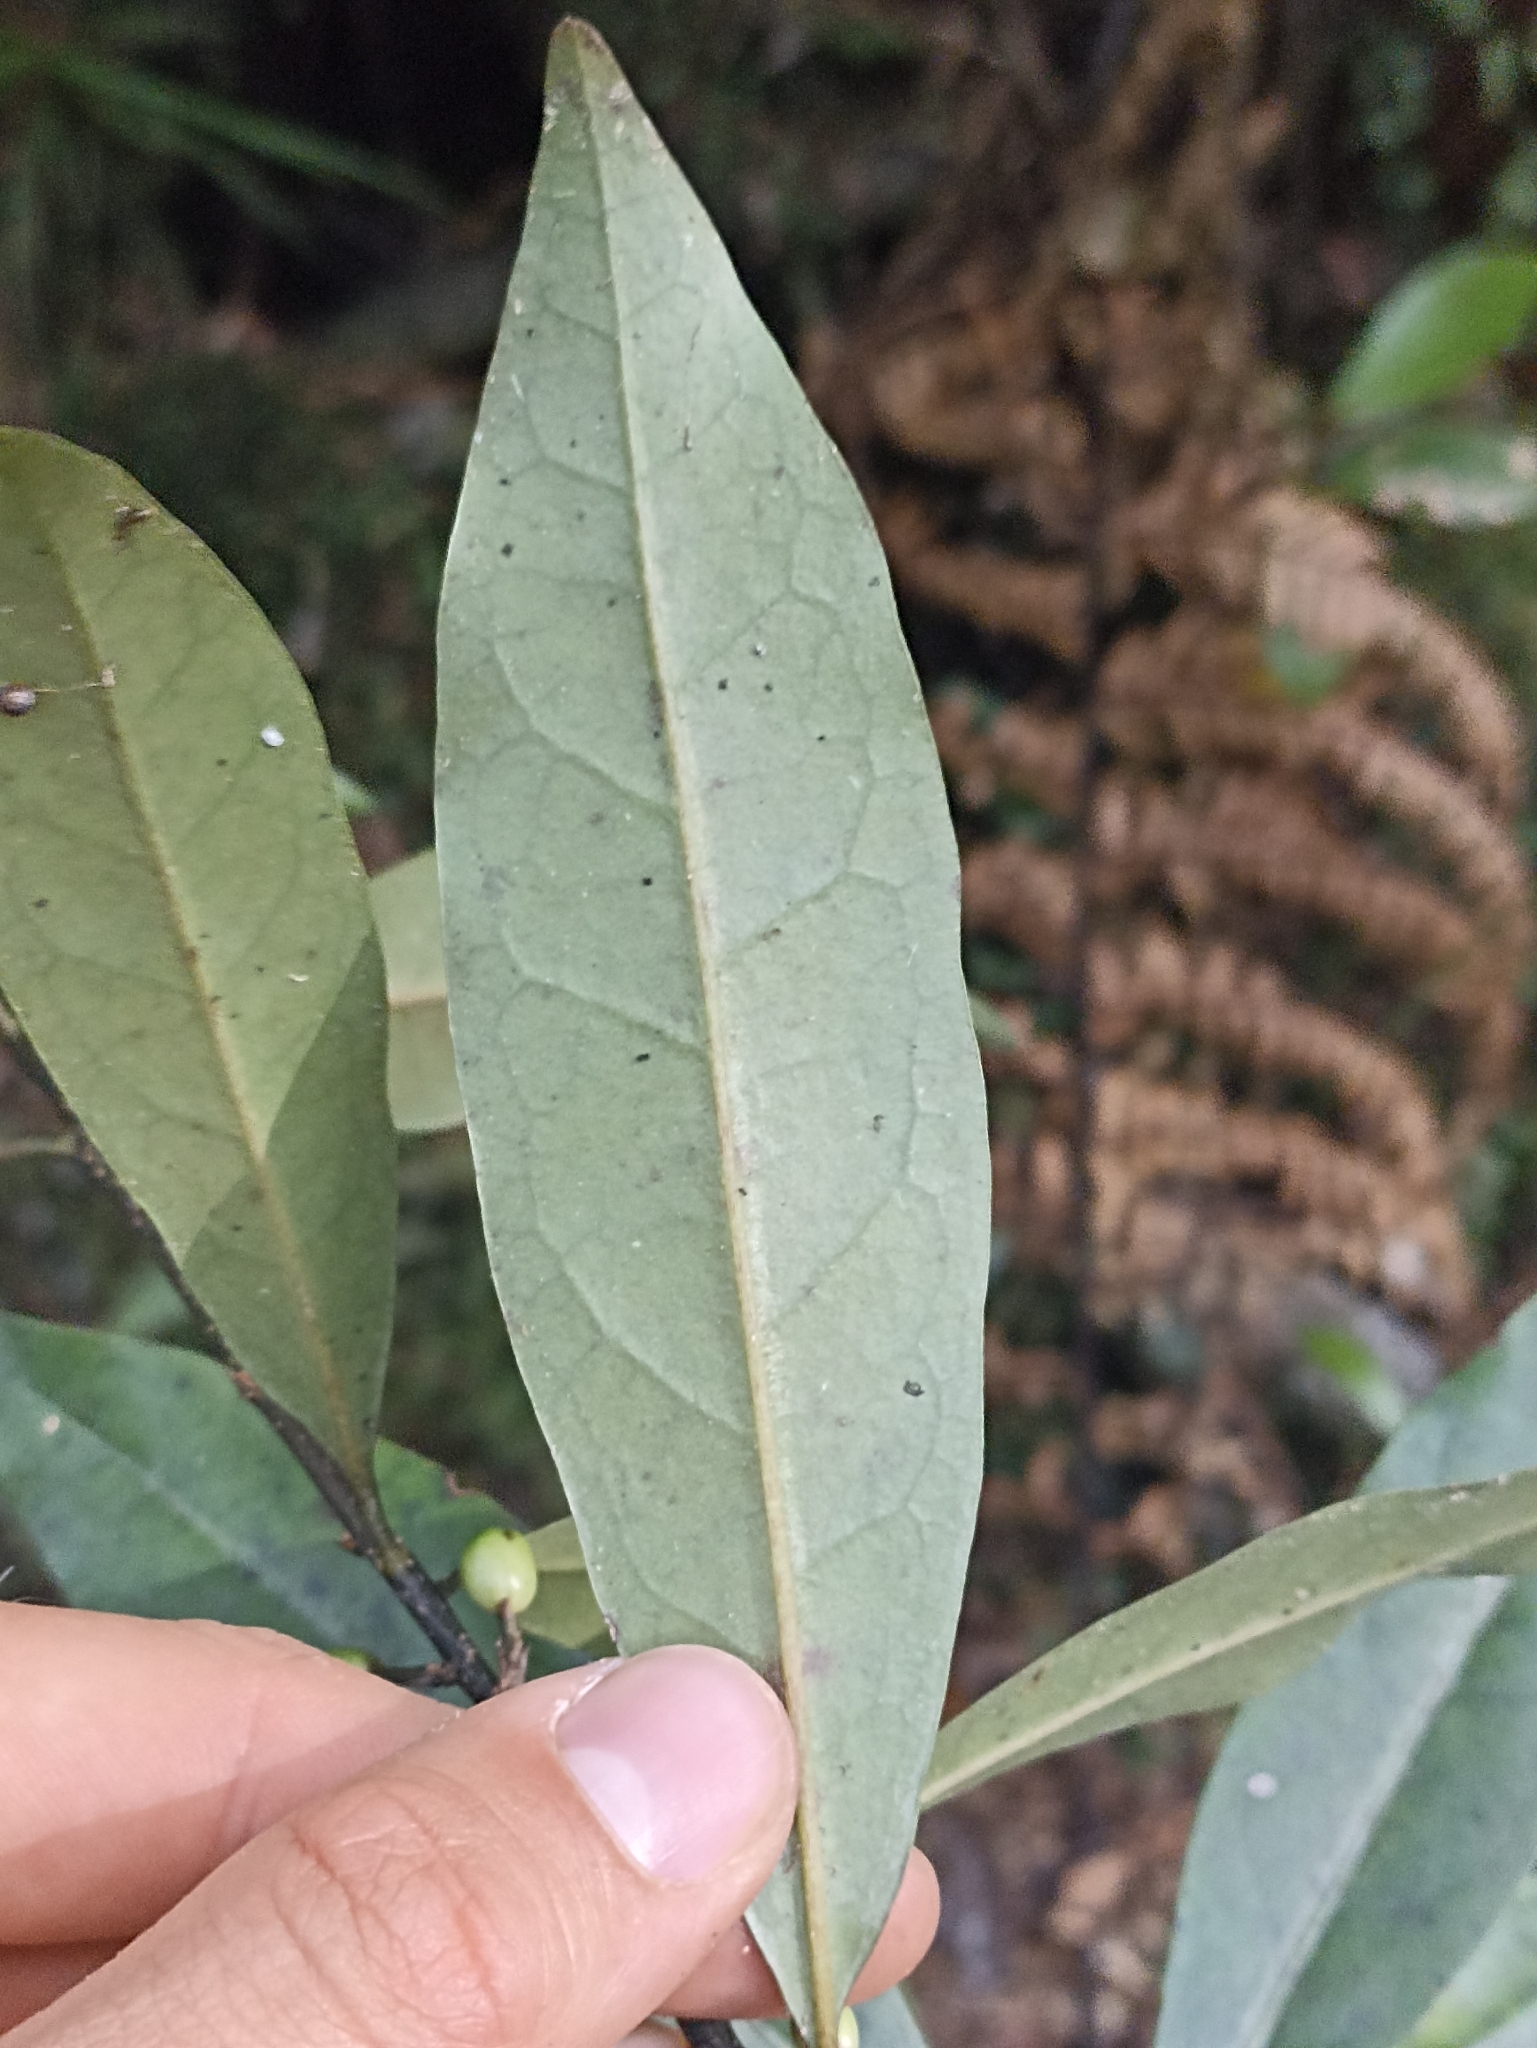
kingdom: Plantae
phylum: Tracheophyta
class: Magnoliopsida
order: Santalales
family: Nanodeaceae
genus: Mida
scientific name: Mida salicifolia
